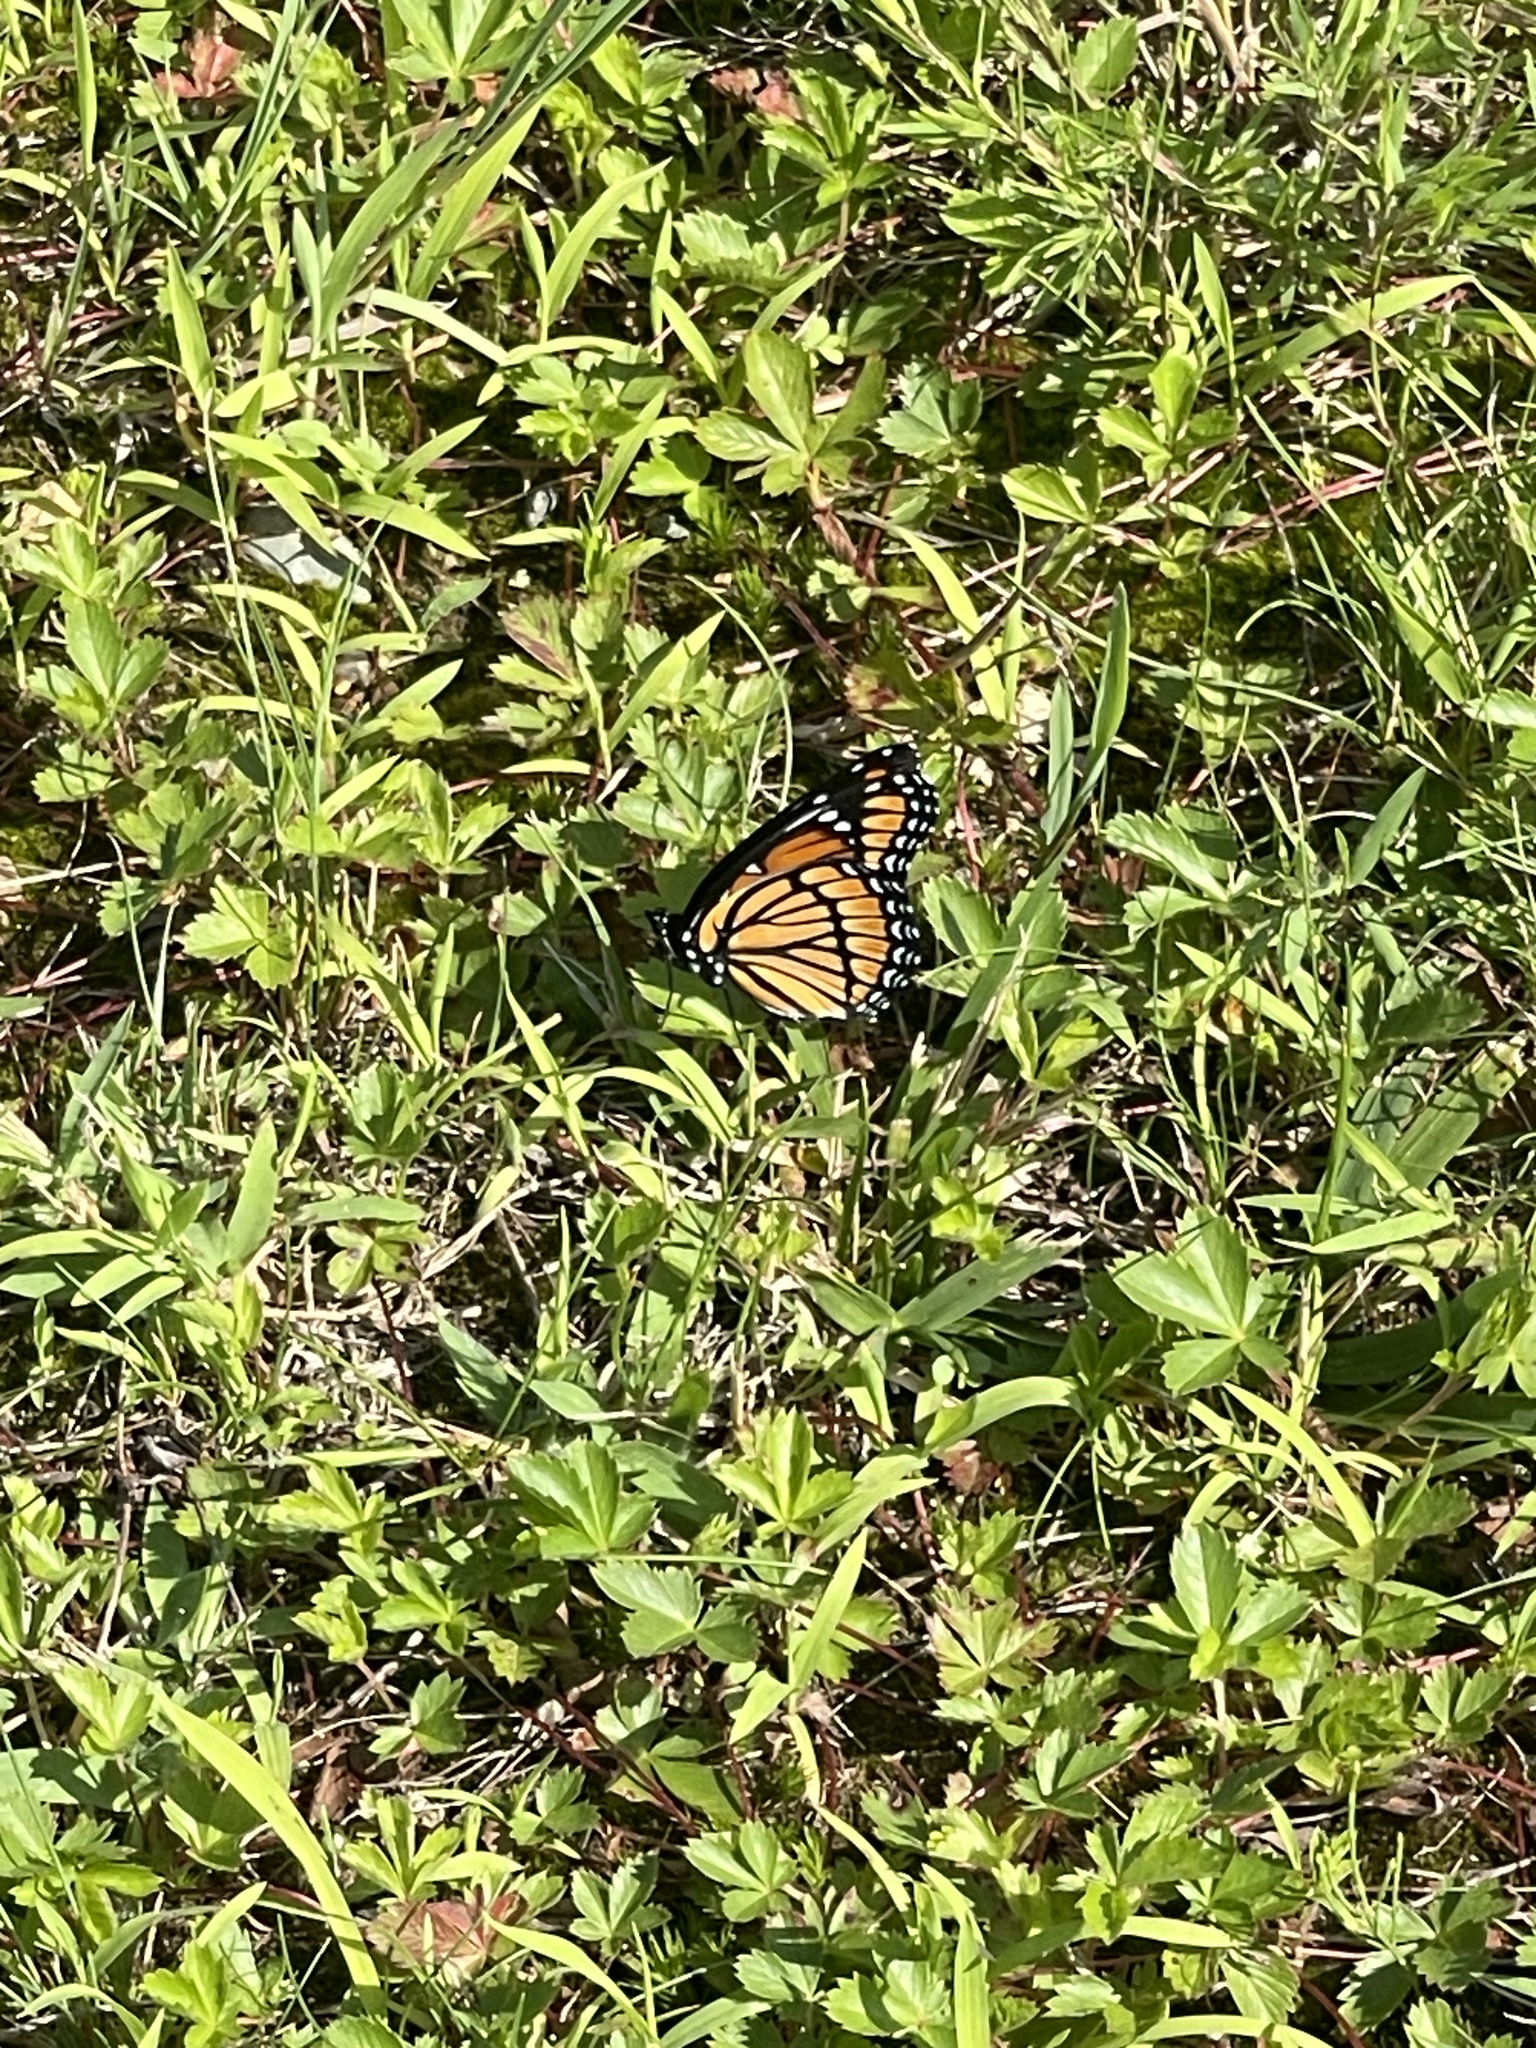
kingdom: Animalia
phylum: Arthropoda
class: Insecta
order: Lepidoptera
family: Nymphalidae
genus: Limenitis
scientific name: Limenitis archippus
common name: Viceroy
